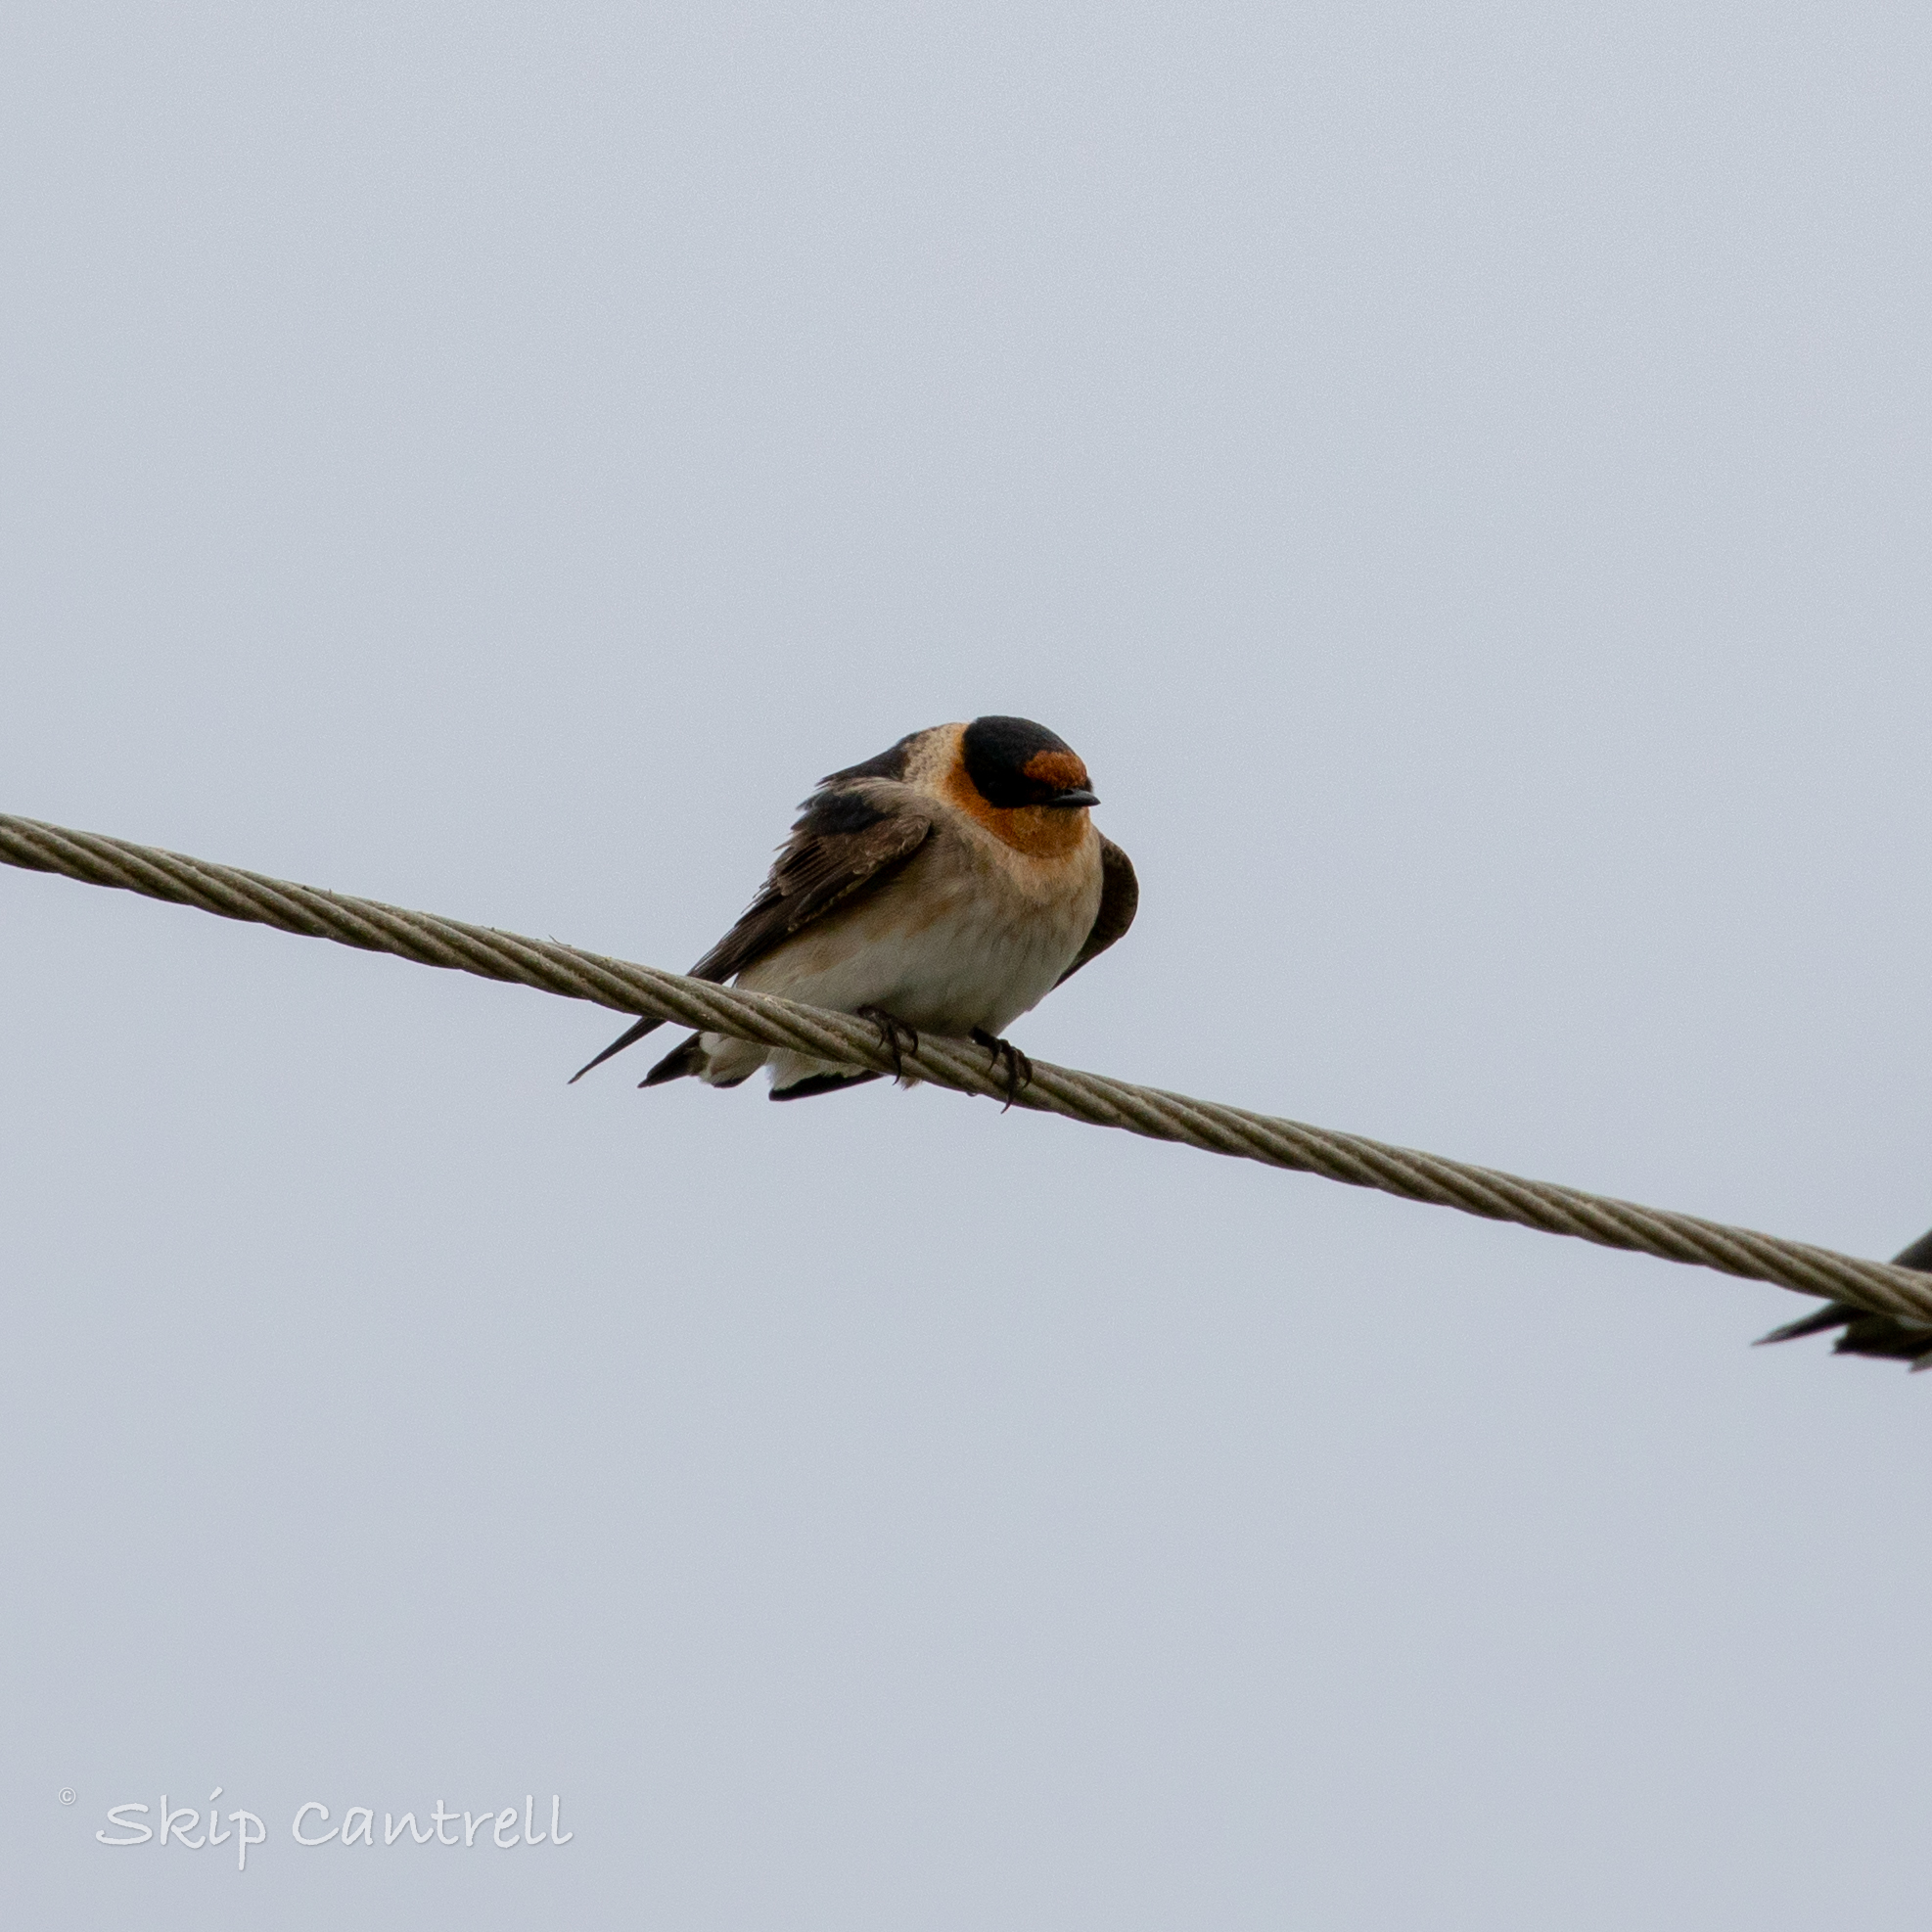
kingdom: Animalia
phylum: Chordata
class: Aves
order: Passeriformes
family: Hirundinidae
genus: Petrochelidon
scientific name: Petrochelidon fulva
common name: Cave swallow
